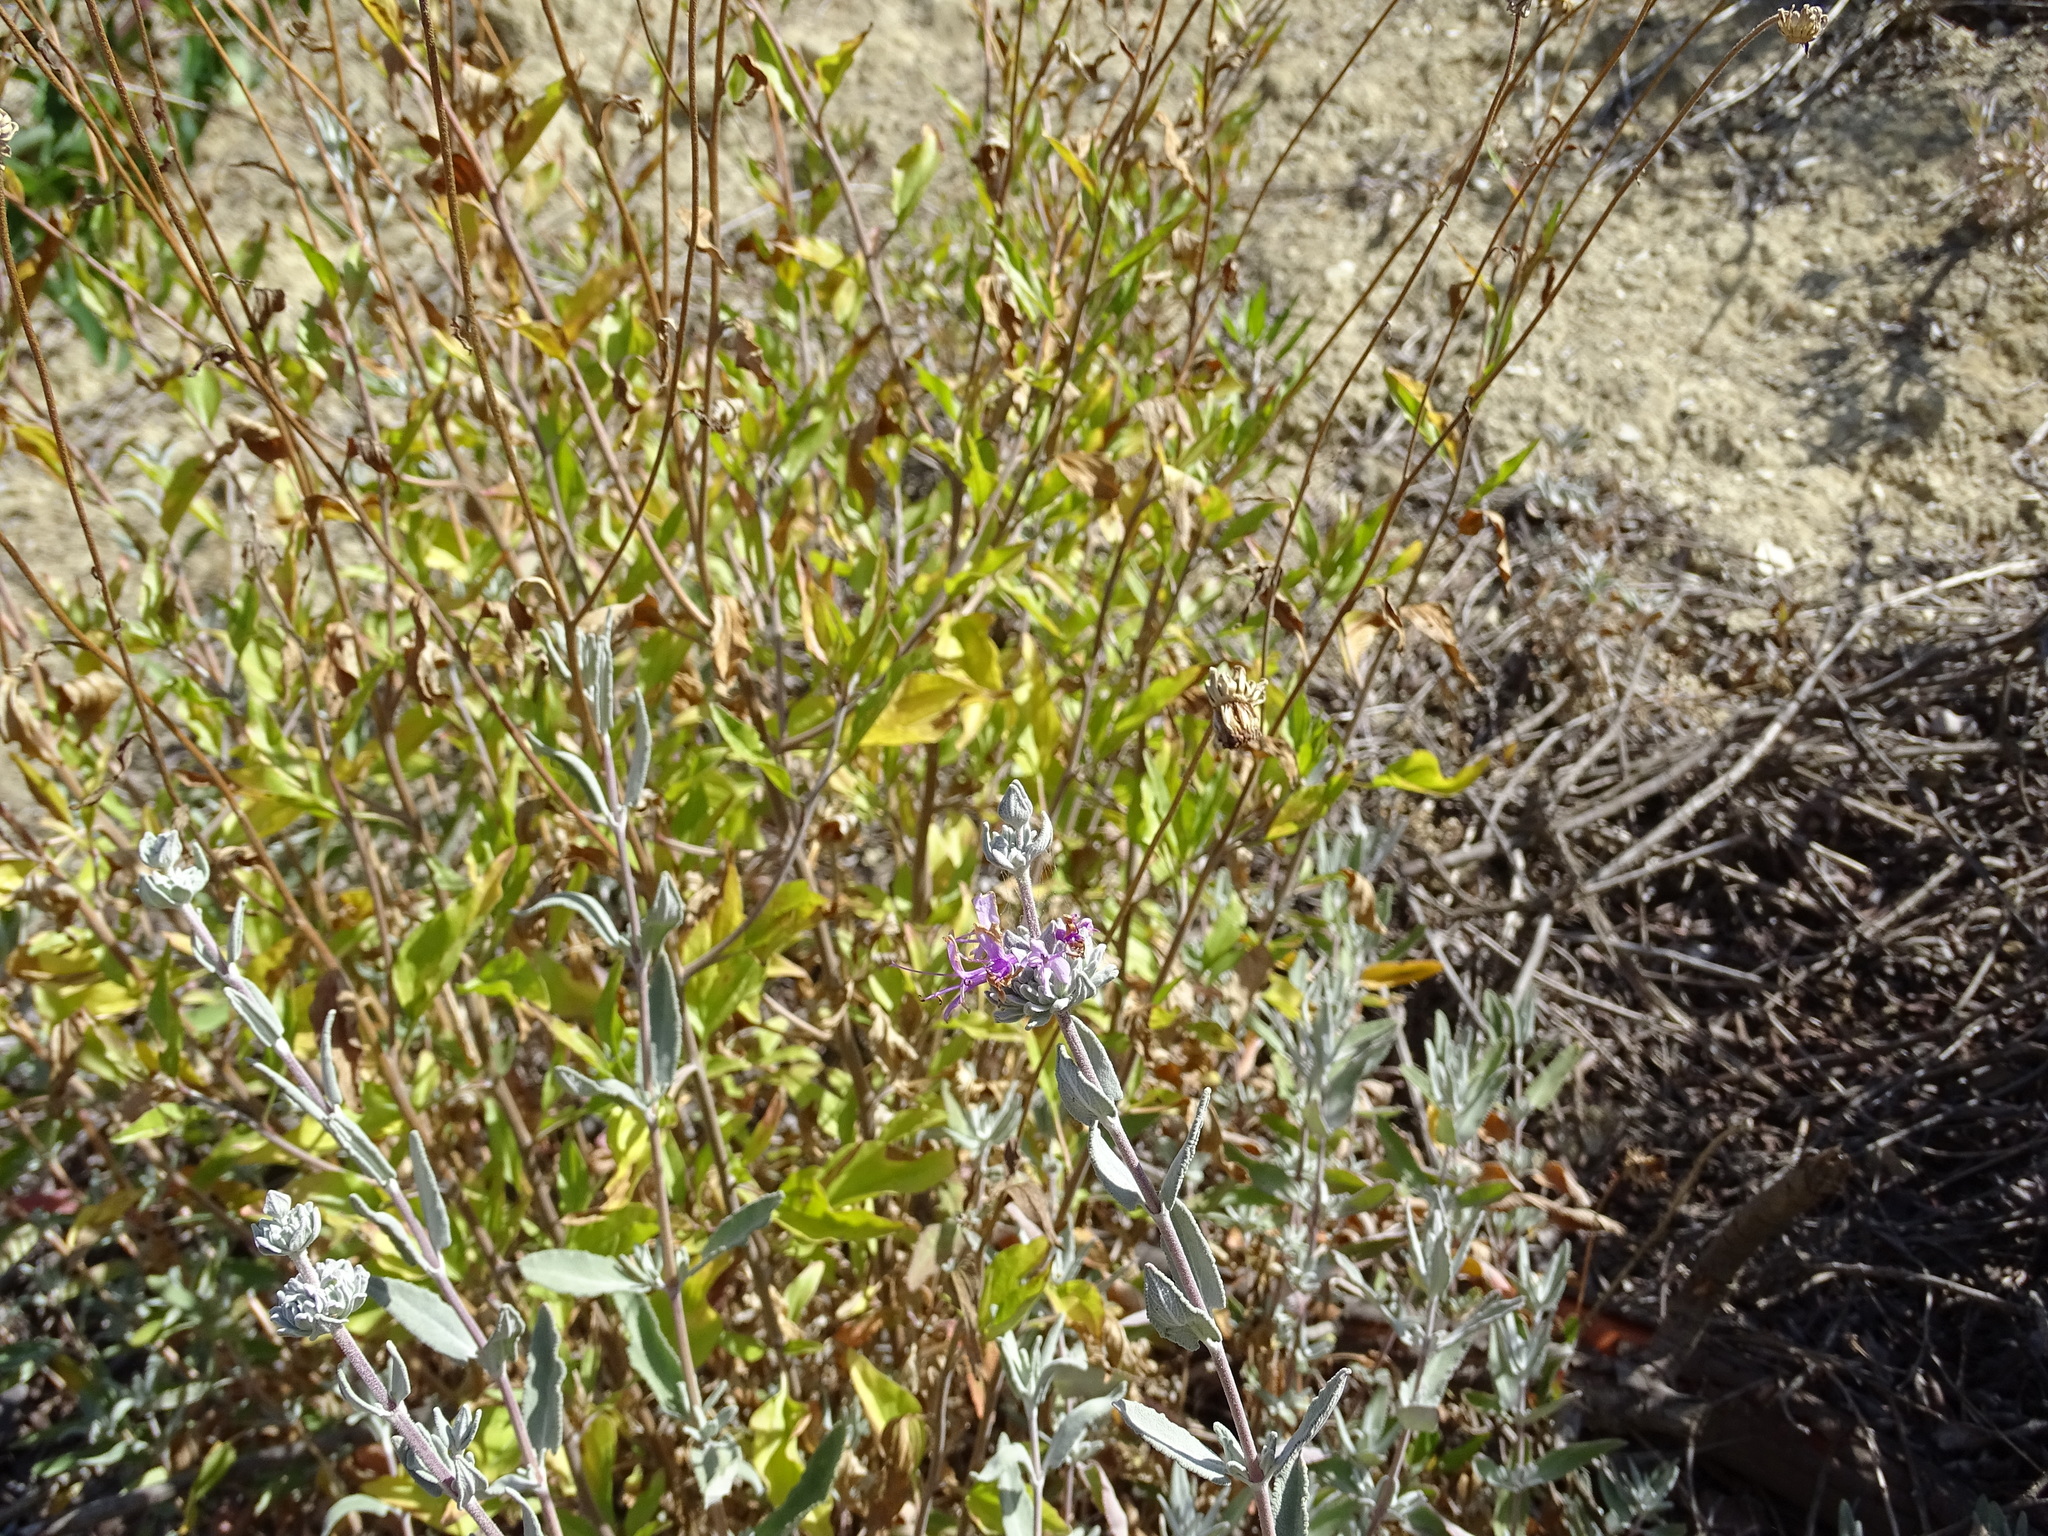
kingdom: Plantae
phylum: Tracheophyta
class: Magnoliopsida
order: Lamiales
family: Lamiaceae
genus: Salvia
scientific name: Salvia leucophylla
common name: Purple sage
